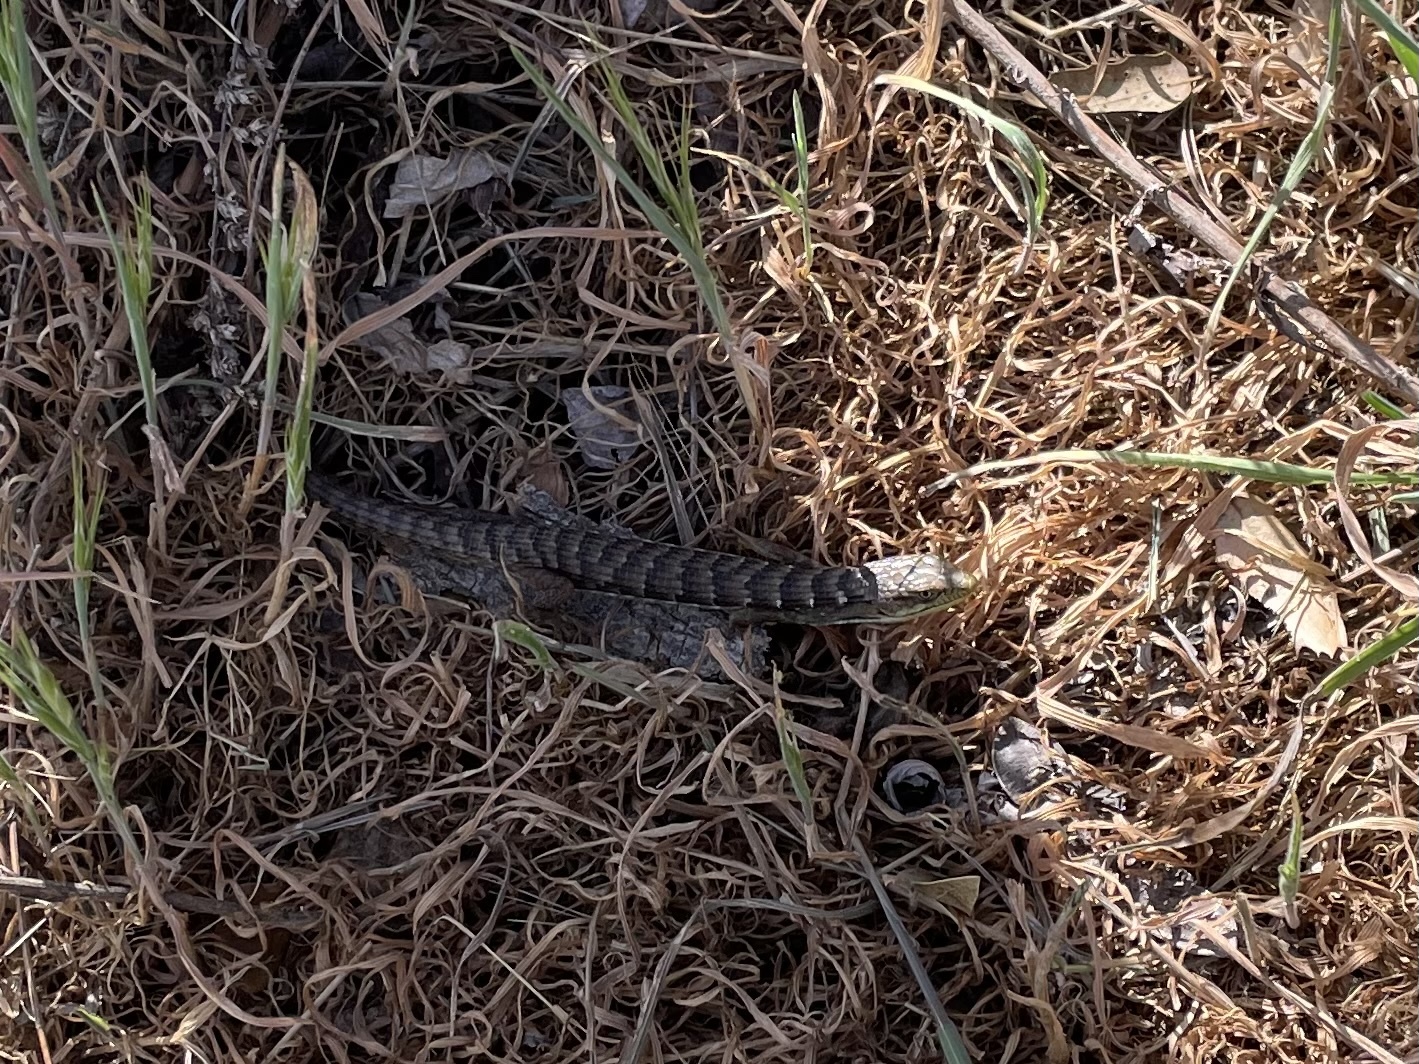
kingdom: Animalia
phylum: Chordata
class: Squamata
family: Anguidae
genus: Elgaria
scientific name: Elgaria multicarinata
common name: Southern alligator lizard
